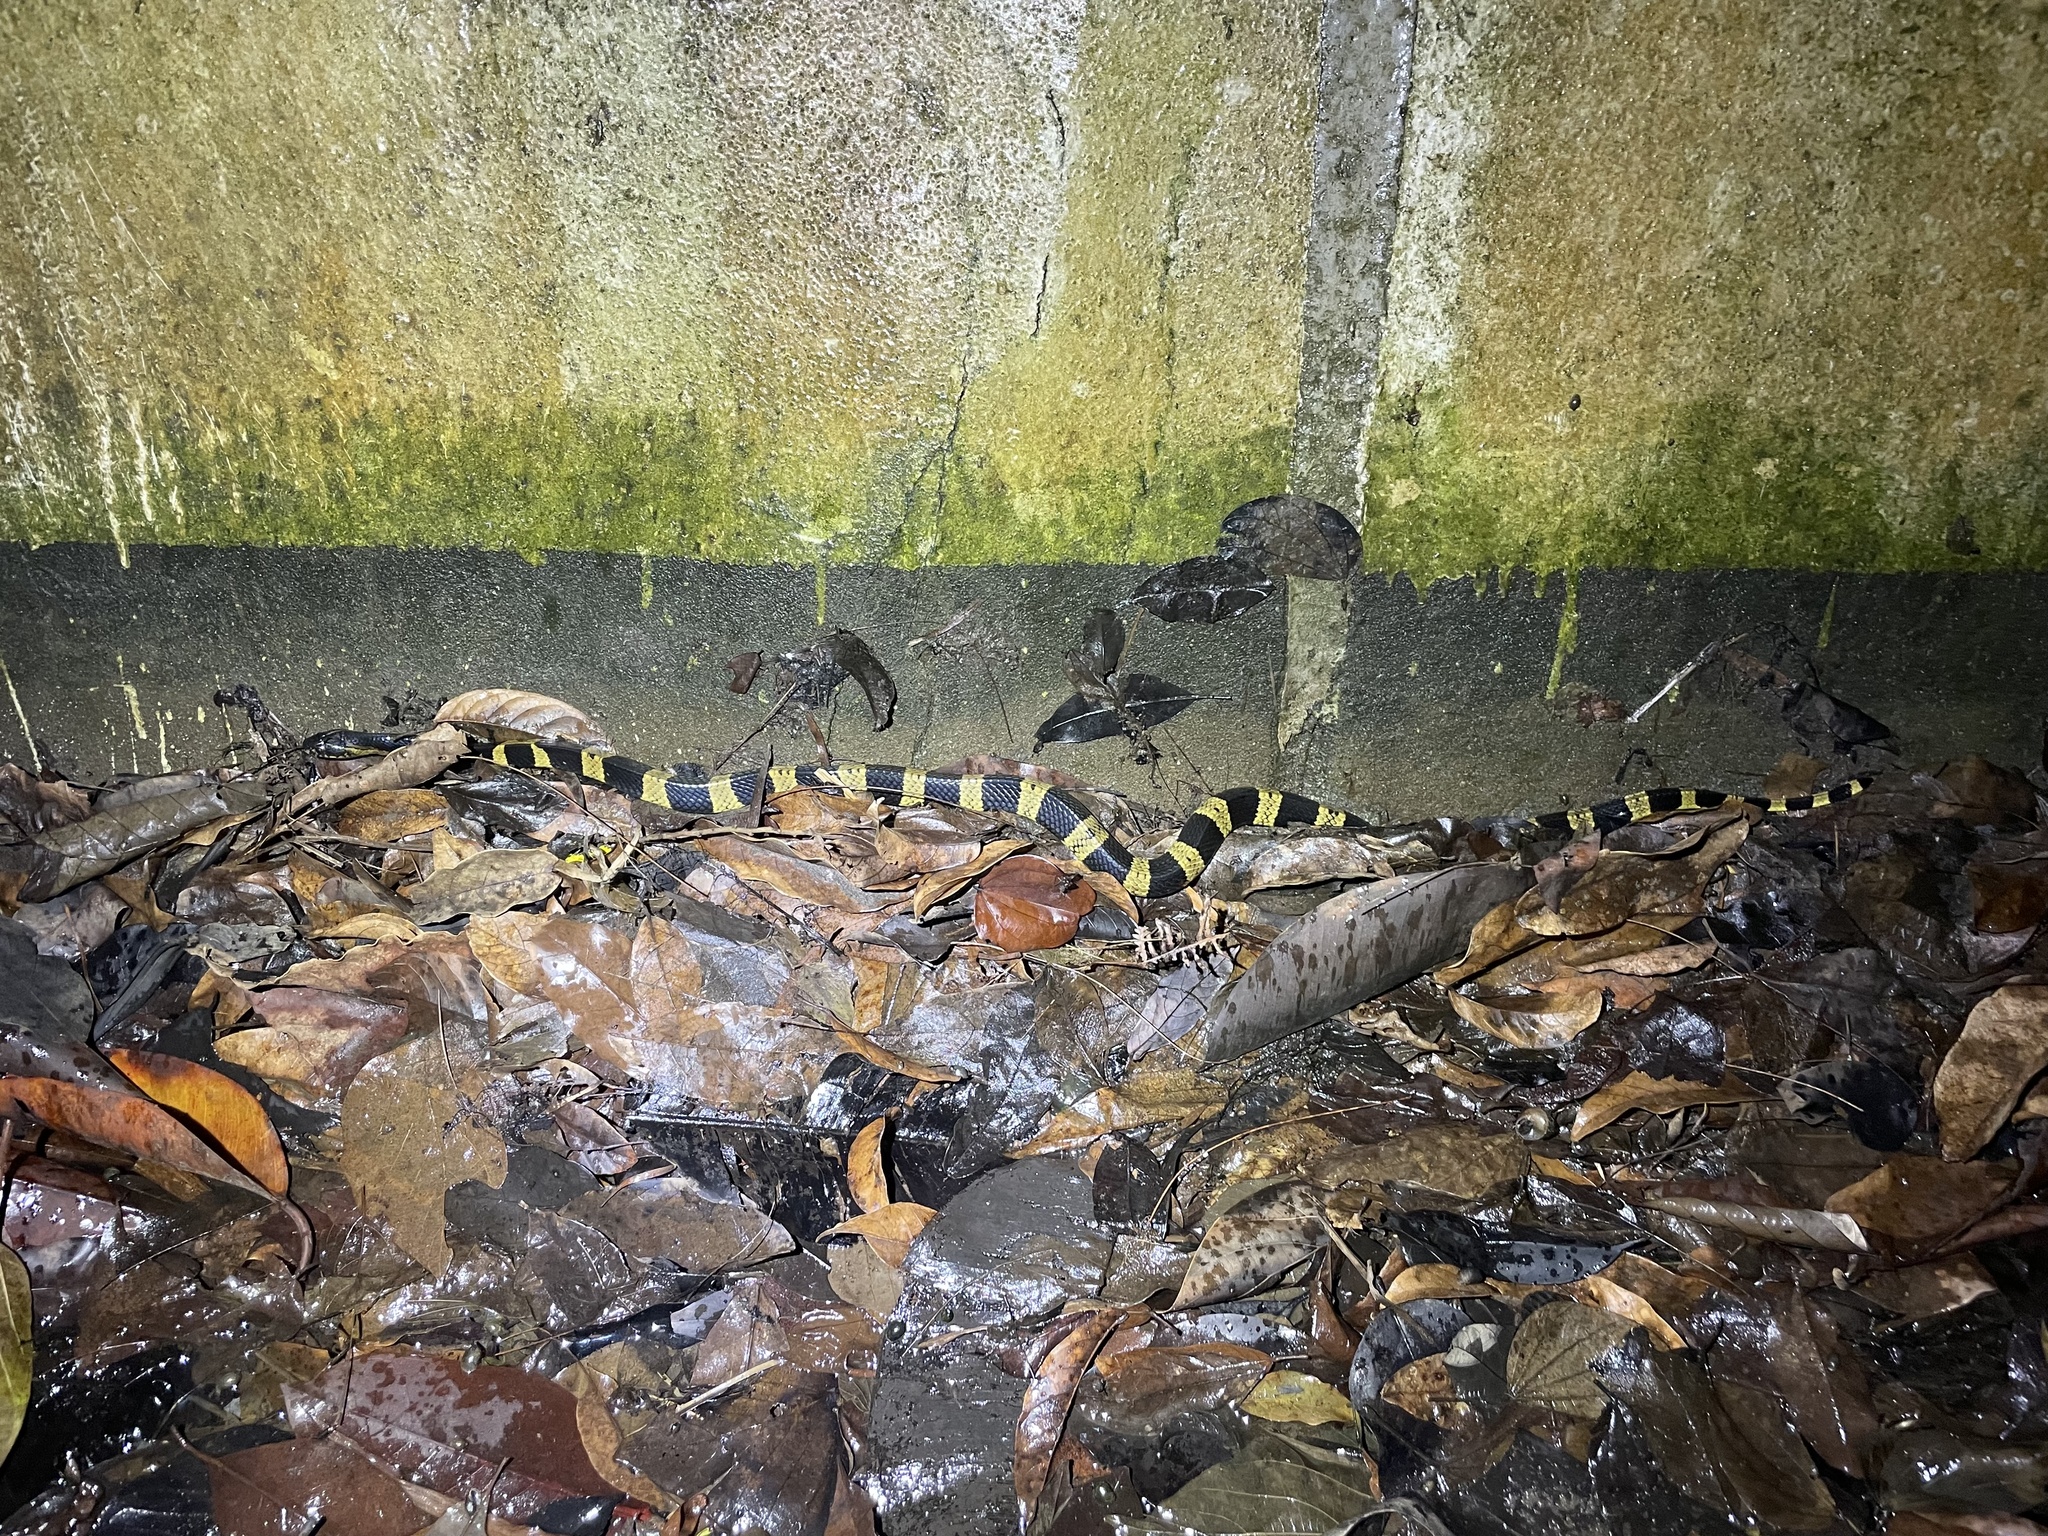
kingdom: Animalia
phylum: Chordata
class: Squamata
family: Elapidae
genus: Bungarus
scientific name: Bungarus fasciatus
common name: Banded krait
